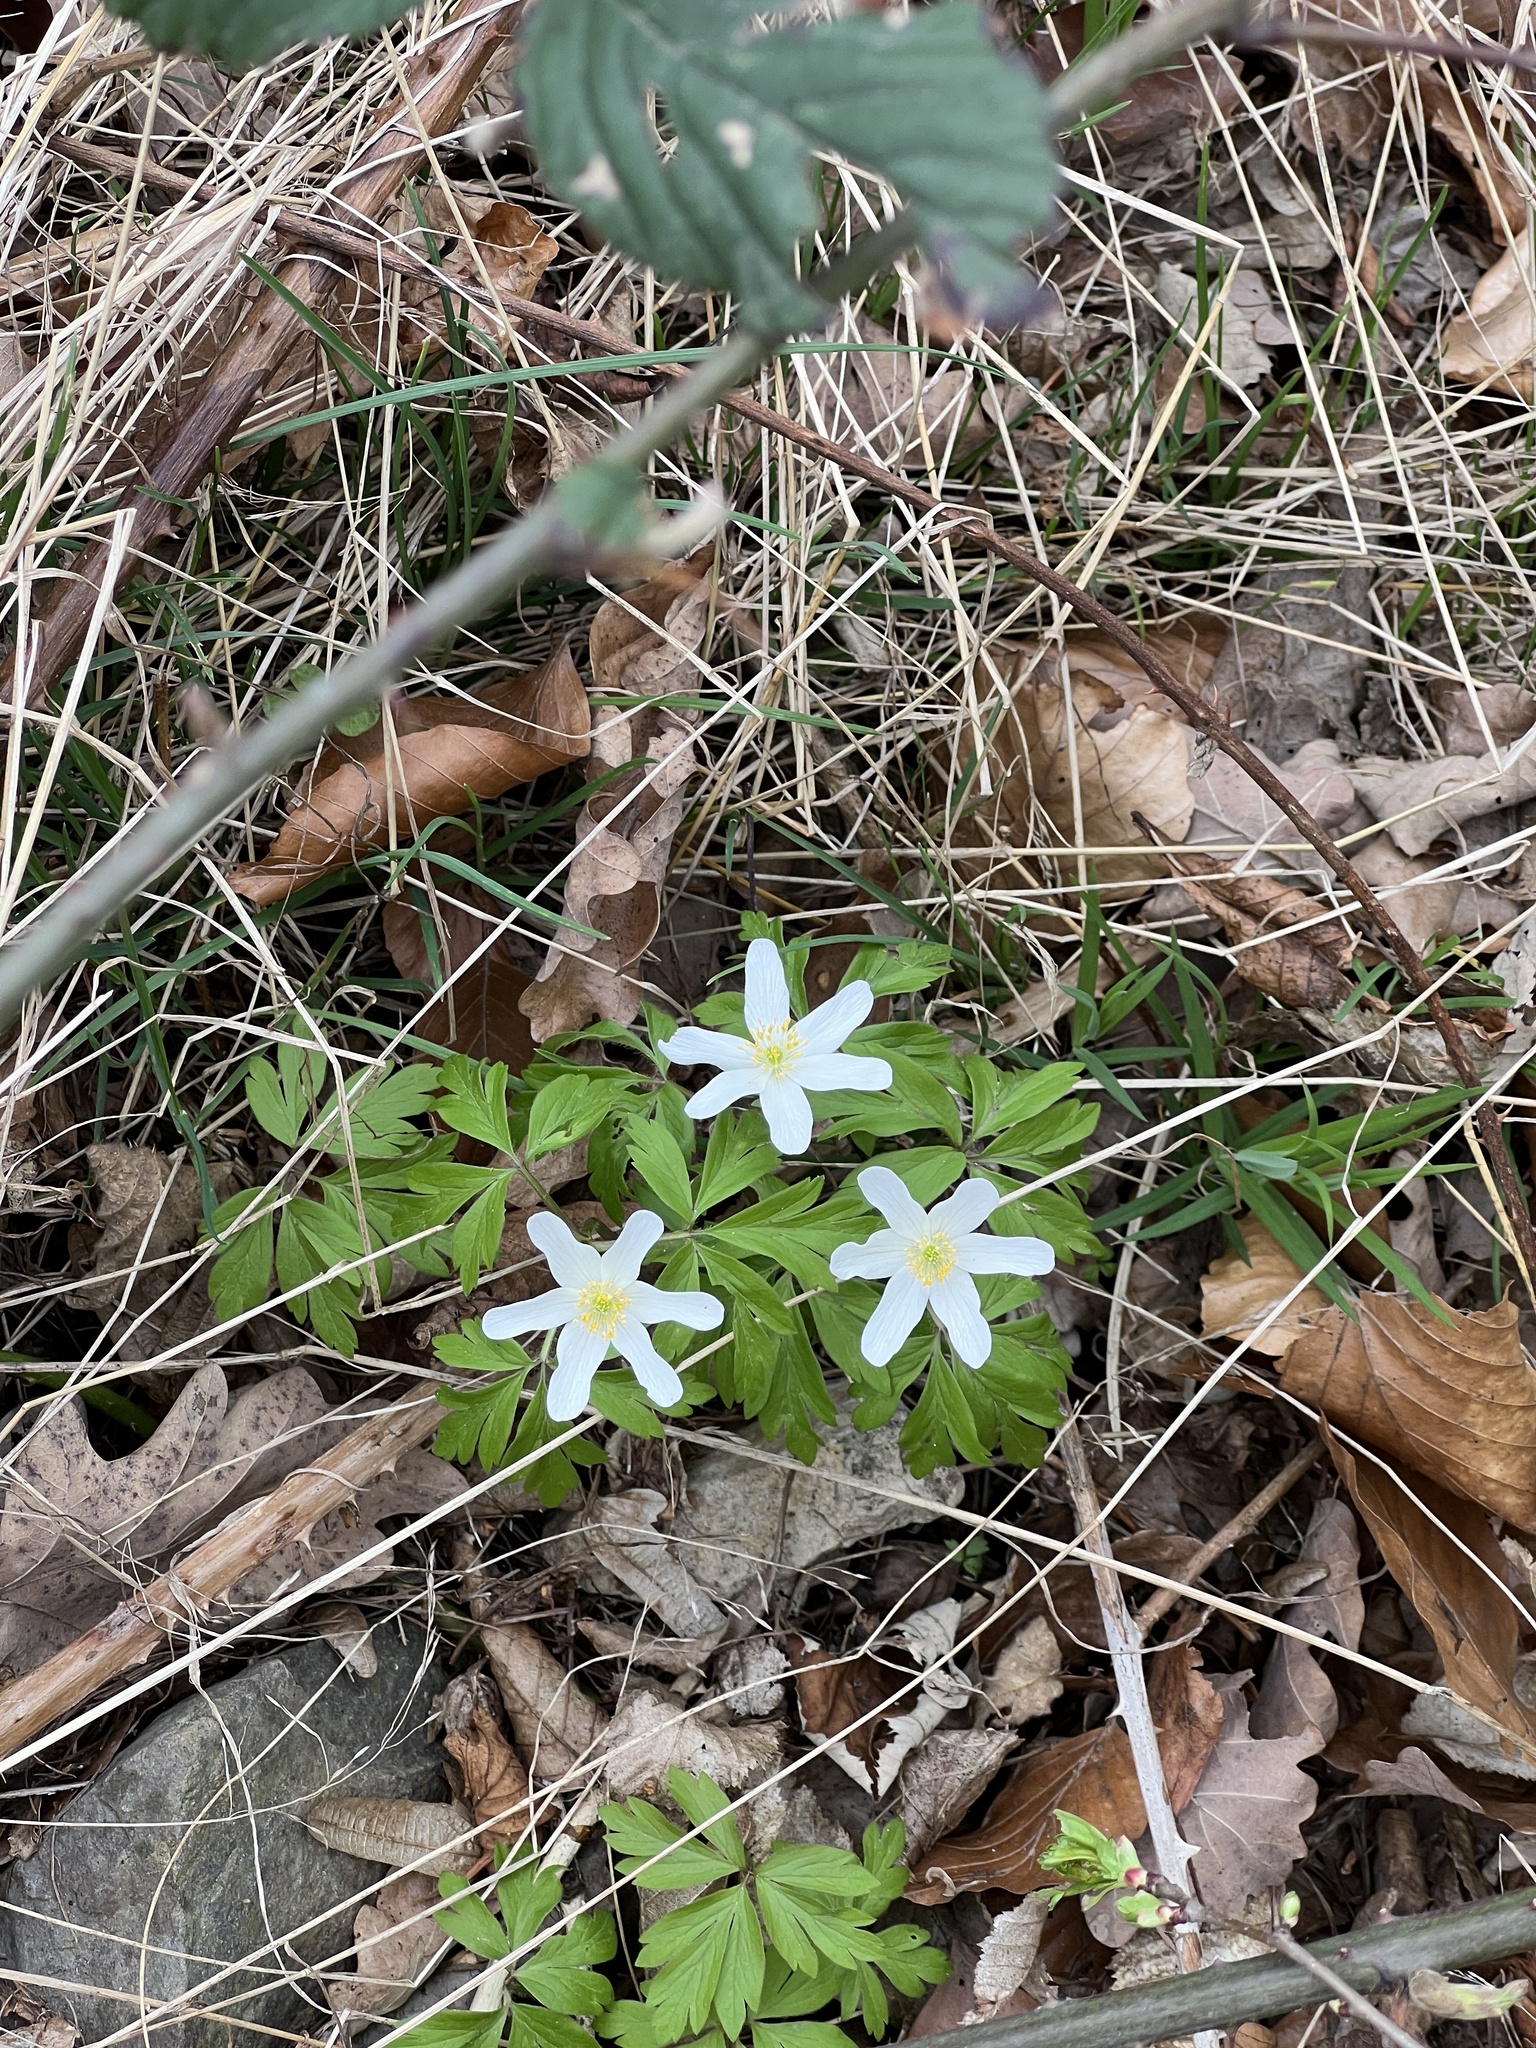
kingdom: Plantae
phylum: Tracheophyta
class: Magnoliopsida
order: Ranunculales
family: Ranunculaceae
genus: Anemone
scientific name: Anemone nemorosa
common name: Wood anemone
